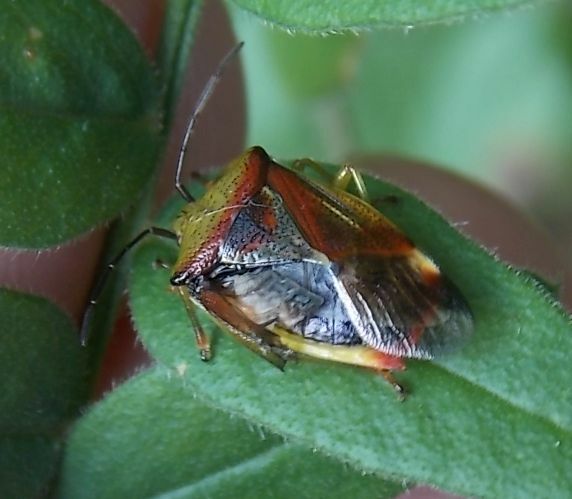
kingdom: Animalia
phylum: Arthropoda
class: Insecta
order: Hemiptera
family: Acanthosomatidae
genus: Elasmostethus
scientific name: Elasmostethus interstinctus
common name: Birch shieldbug
